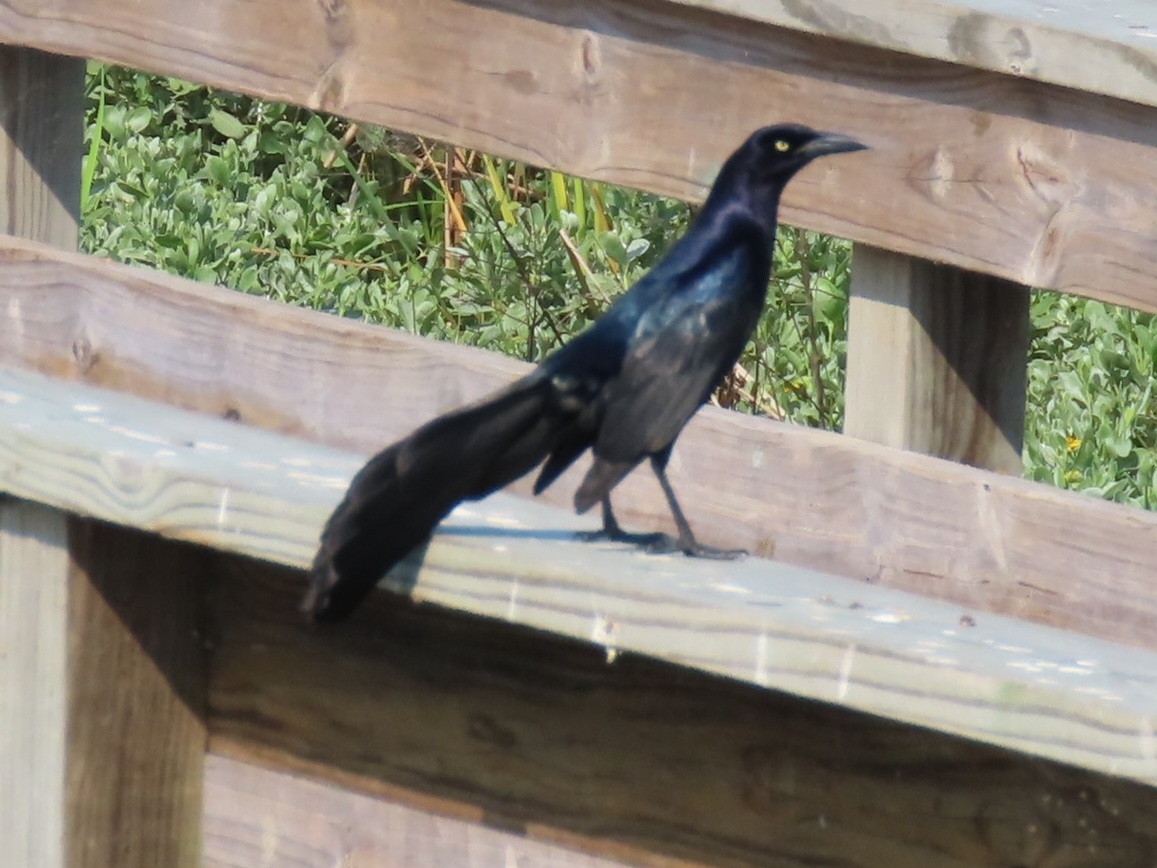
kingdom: Animalia
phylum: Chordata
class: Aves
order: Passeriformes
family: Icteridae
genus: Quiscalus
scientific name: Quiscalus mexicanus
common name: Great-tailed grackle
